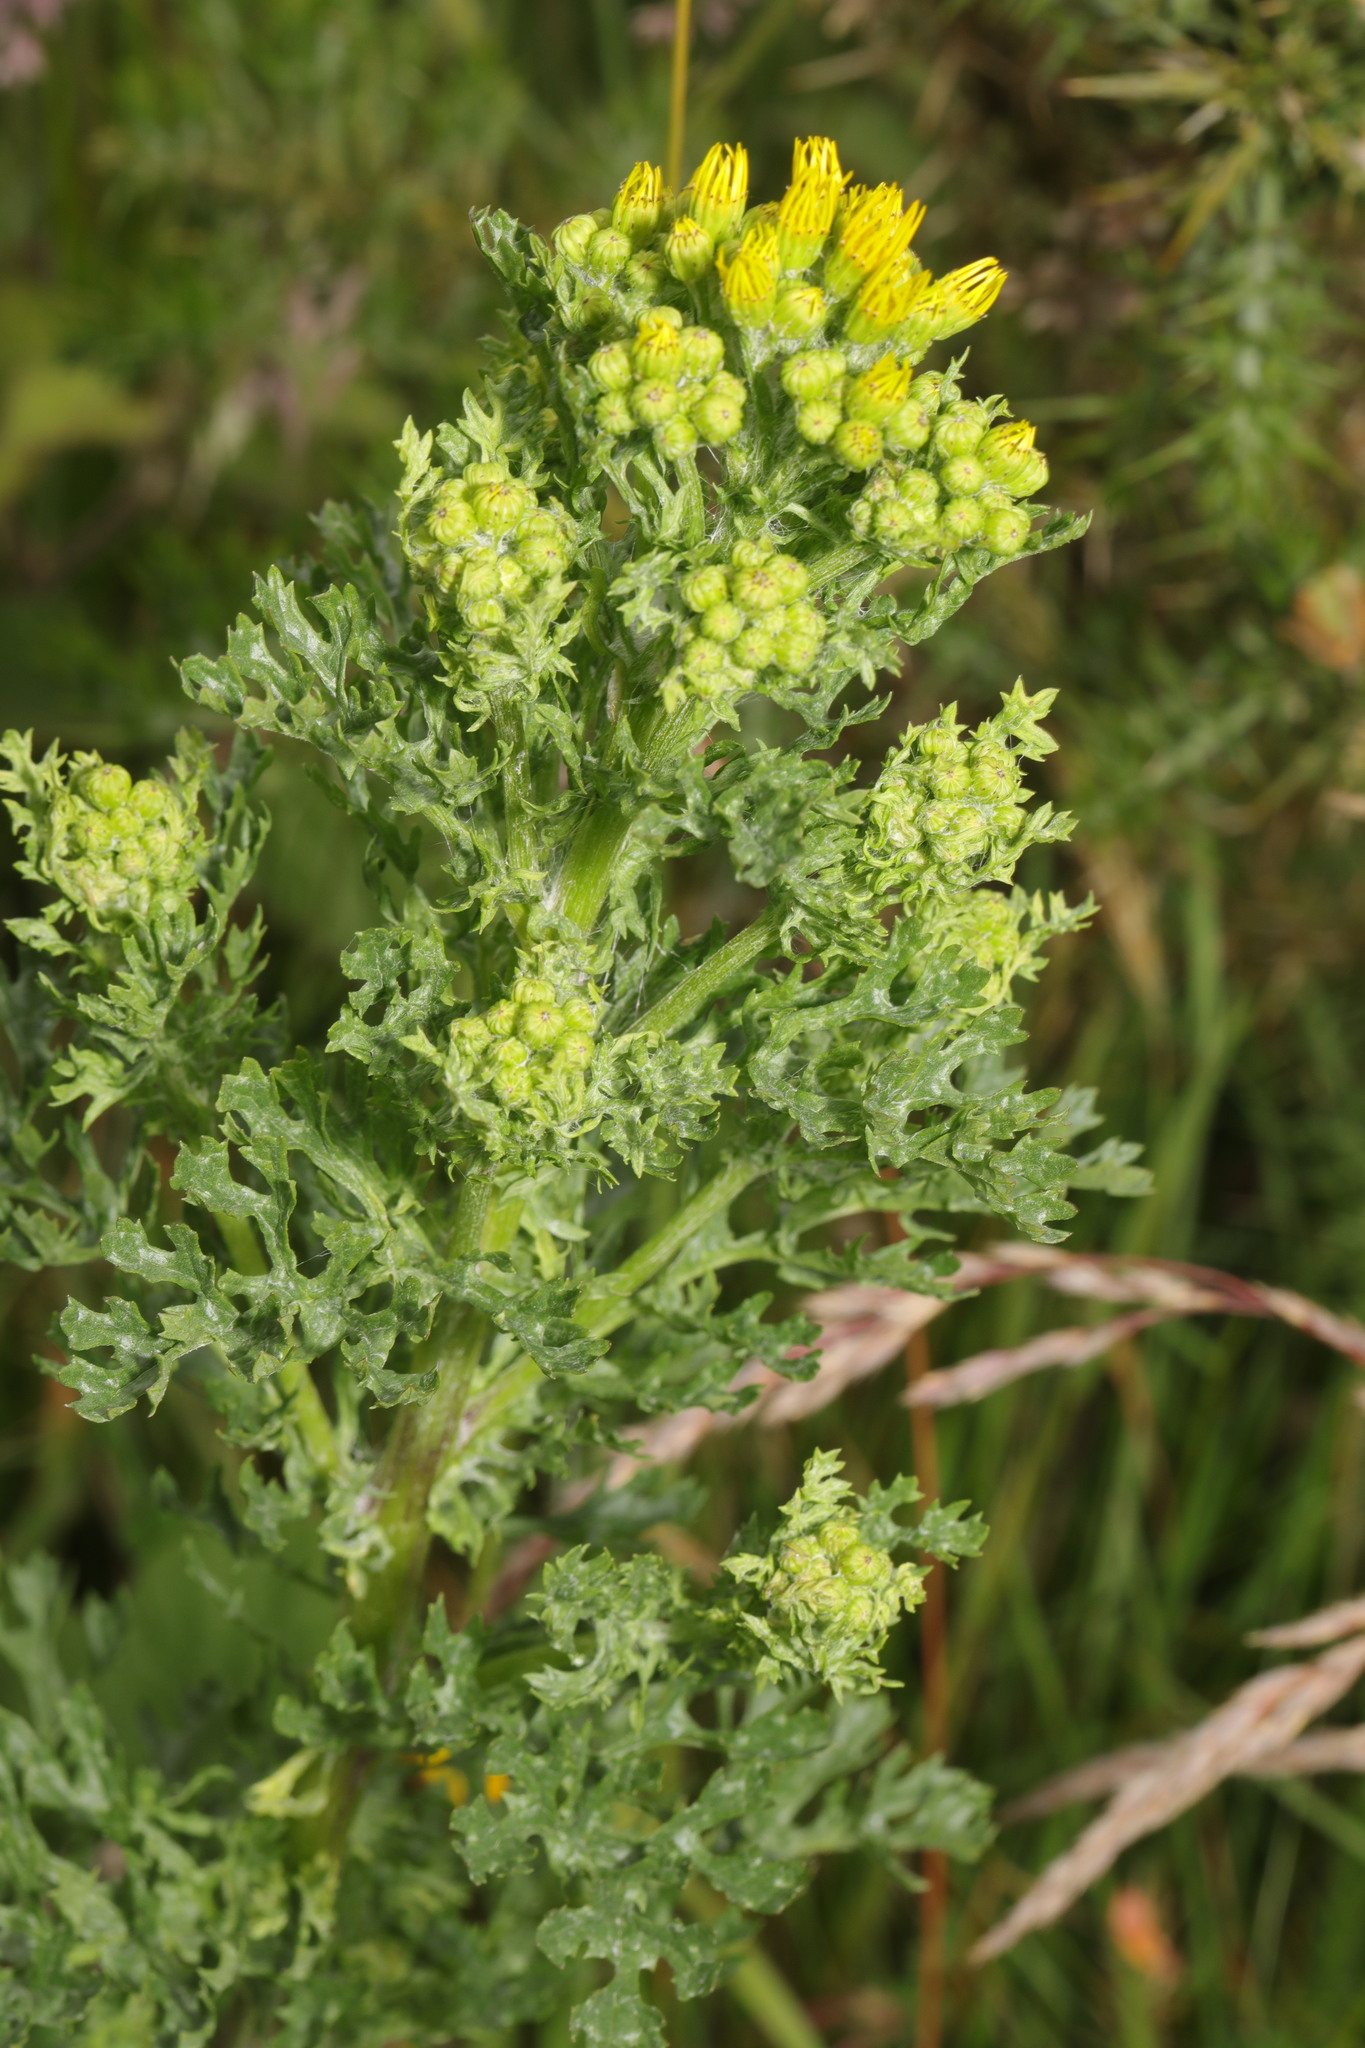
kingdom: Plantae
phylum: Tracheophyta
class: Magnoliopsida
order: Asterales
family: Asteraceae
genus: Jacobaea
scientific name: Jacobaea vulgaris
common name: Stinking willie
